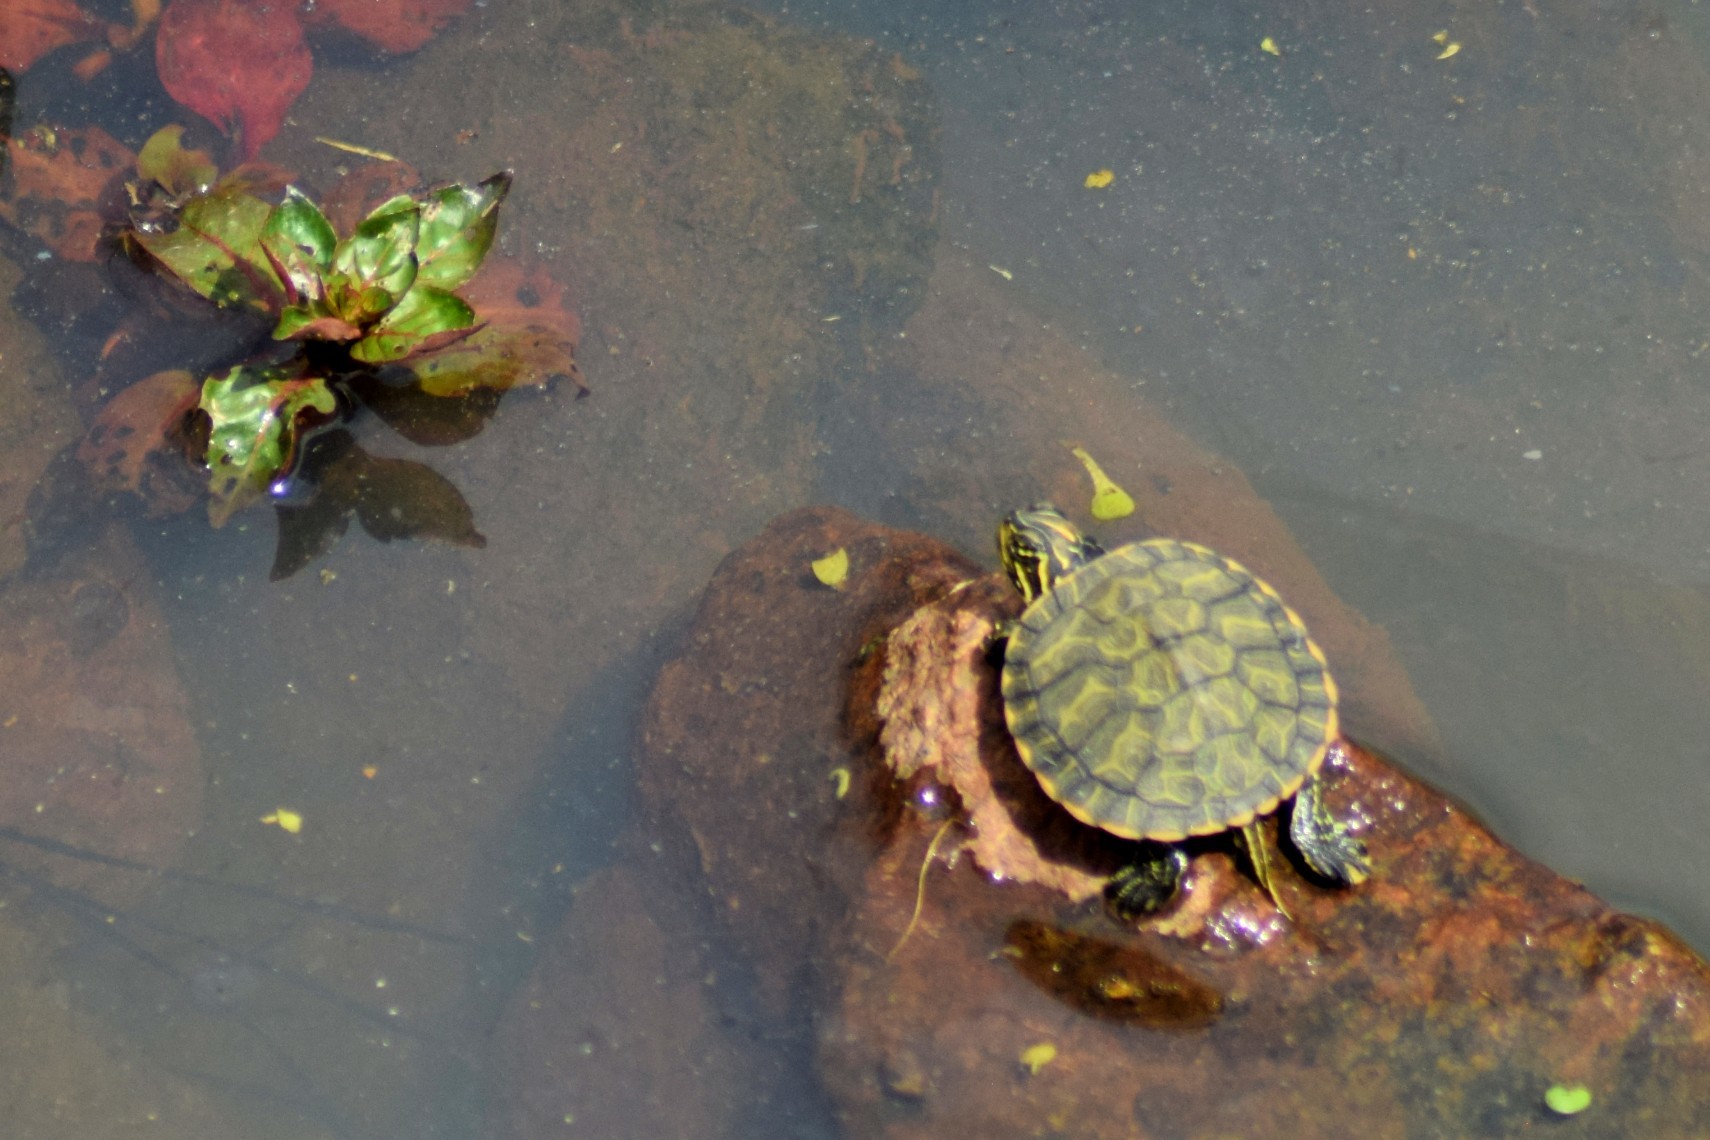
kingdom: Animalia
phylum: Chordata
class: Testudines
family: Emydidae
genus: Pseudemys
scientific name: Pseudemys rubriventris
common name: American red-bellied turtle
